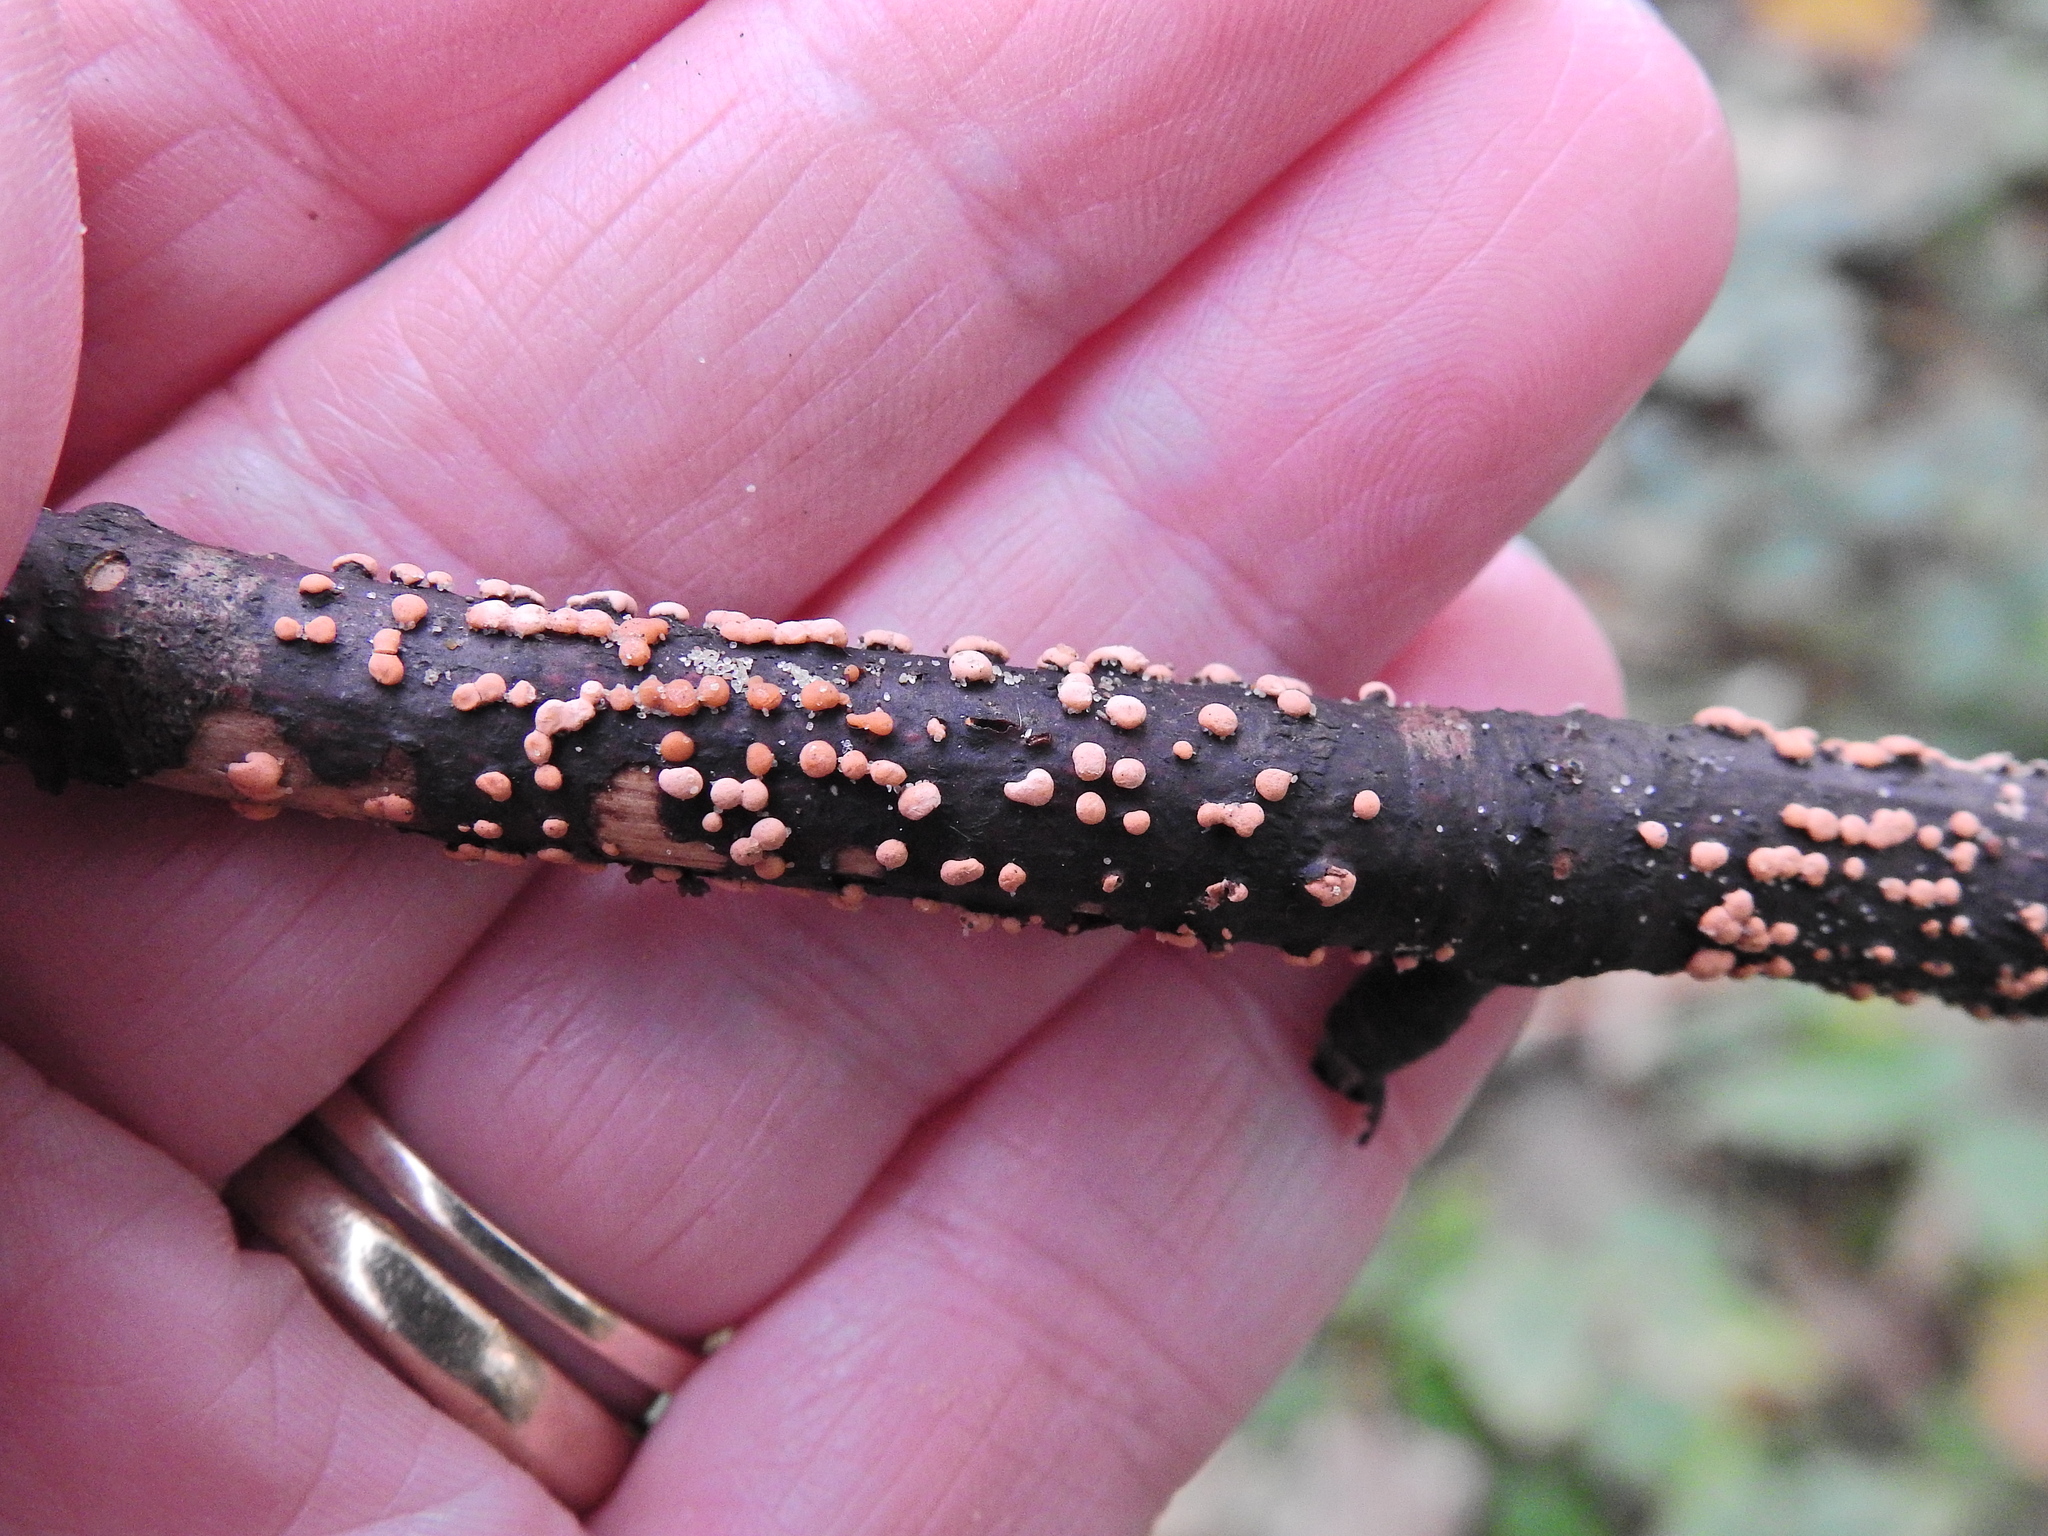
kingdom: Fungi
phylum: Ascomycota
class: Sordariomycetes
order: Hypocreales
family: Nectriaceae
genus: Nectria
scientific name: Nectria cinnabarina
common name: Coral spot
